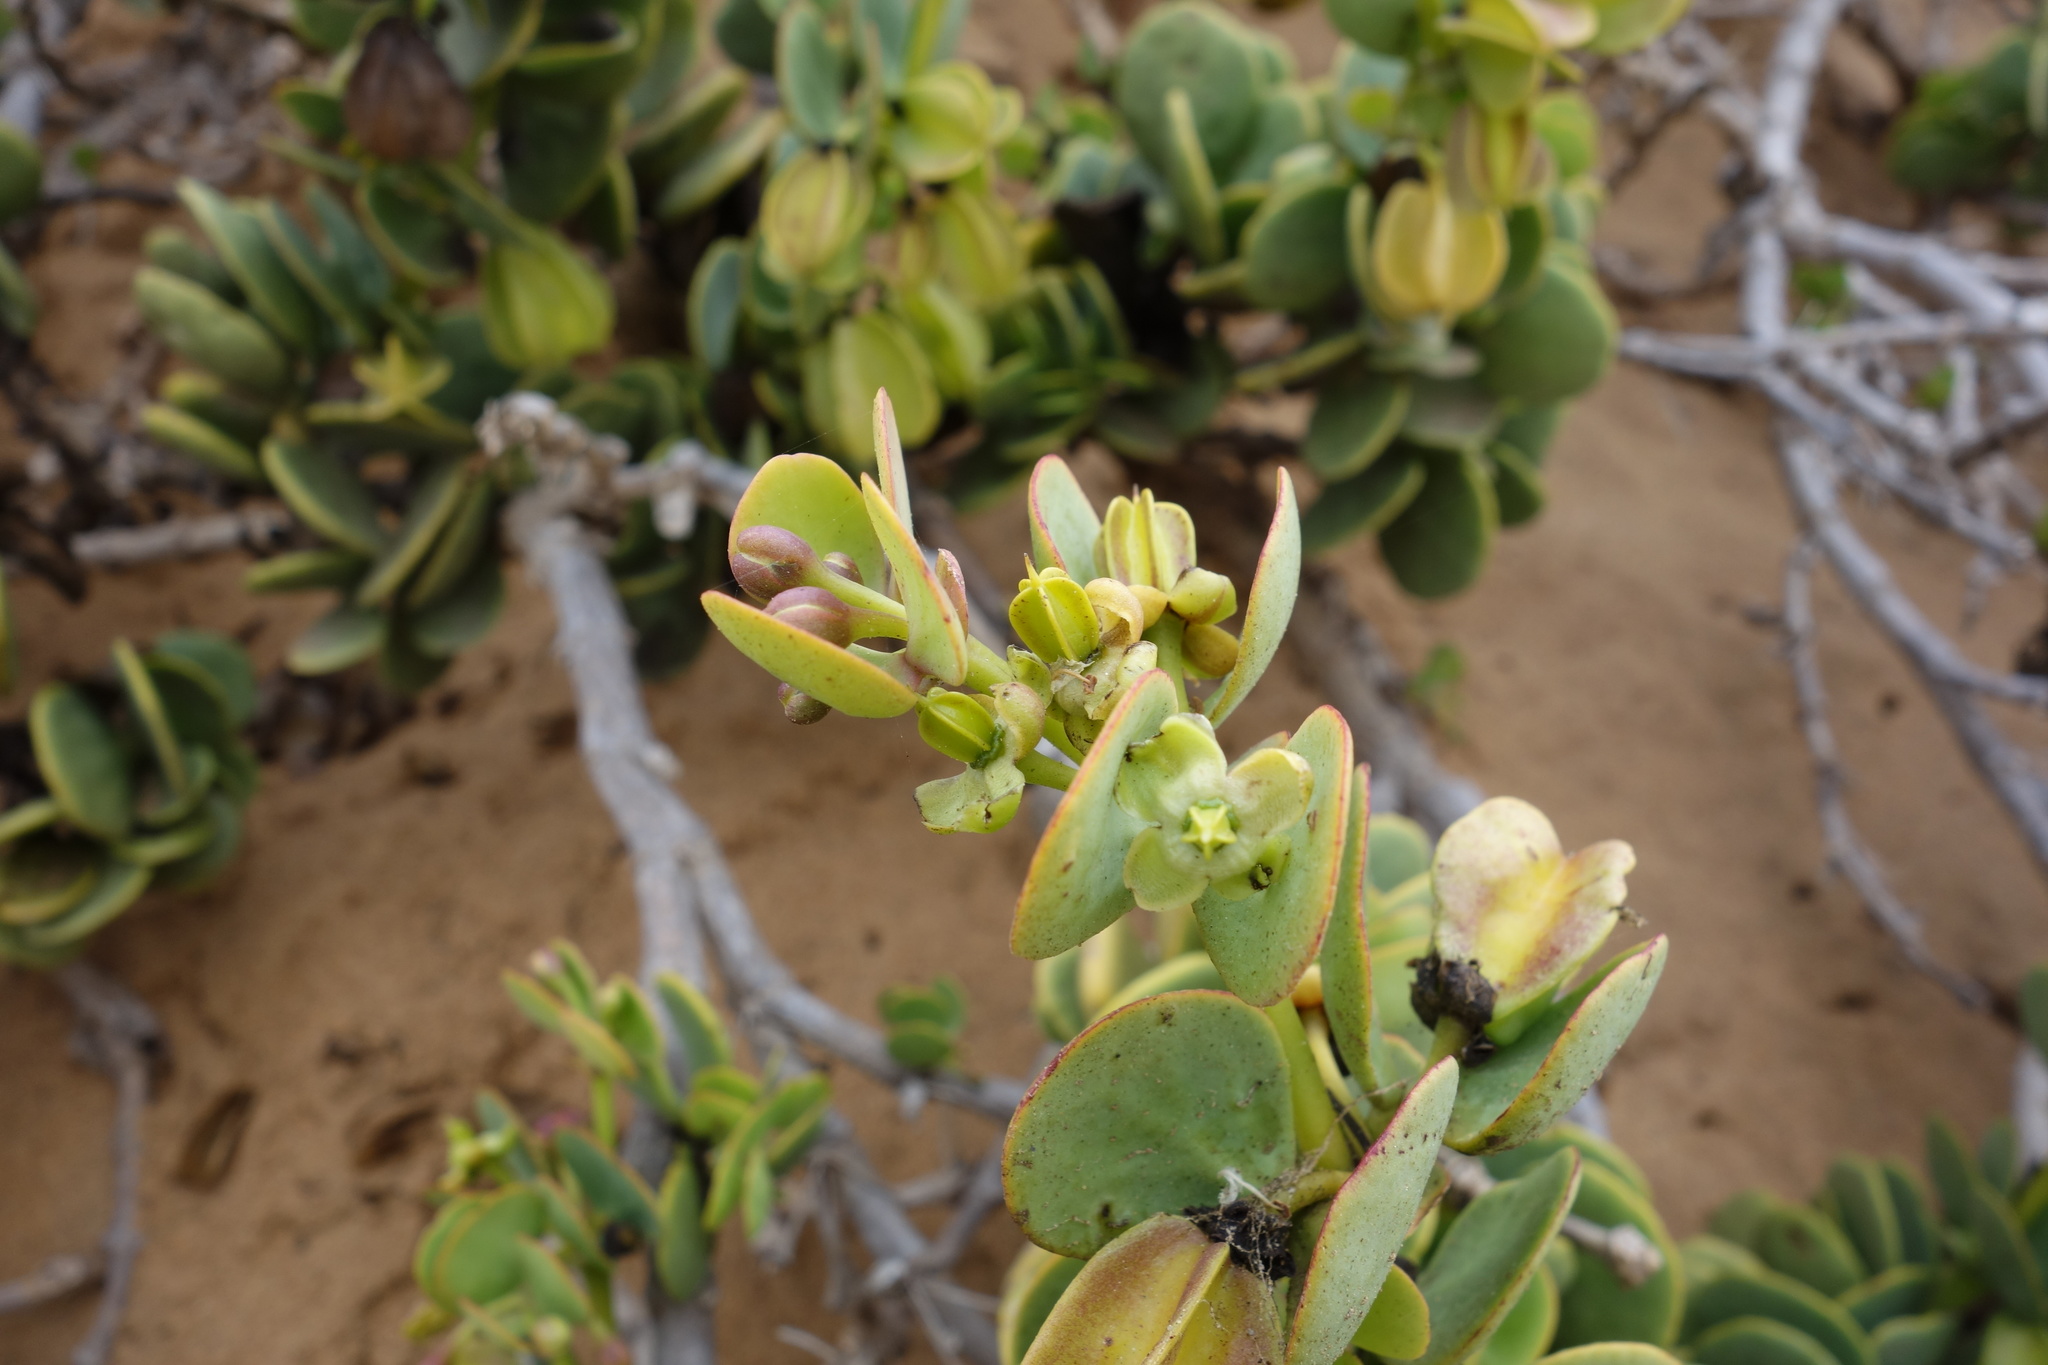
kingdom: Plantae
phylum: Tracheophyta
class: Magnoliopsida
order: Zygophyllales
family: Zygophyllaceae
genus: Tetraena
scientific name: Tetraena stapfii
